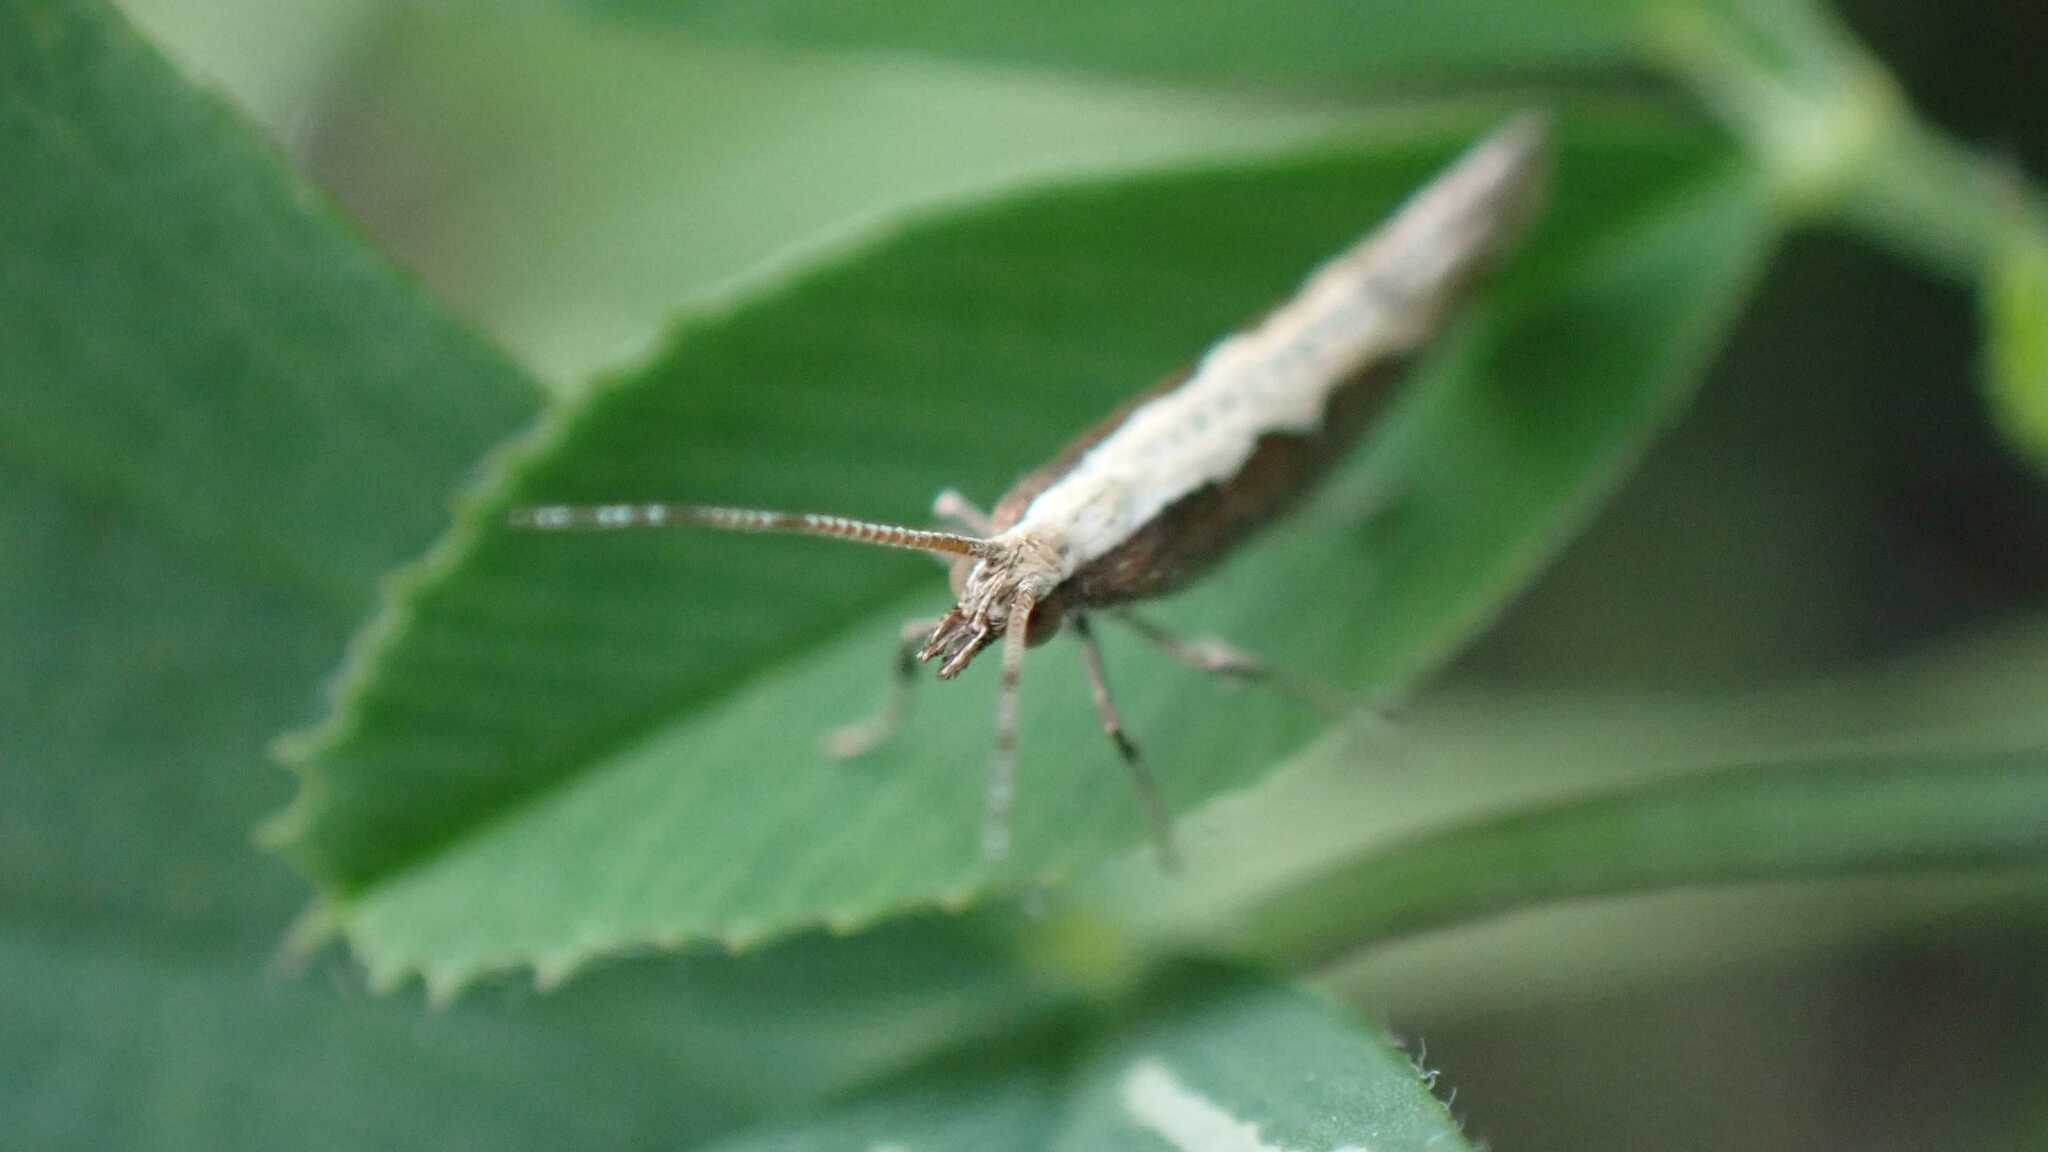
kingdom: Animalia
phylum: Arthropoda
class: Insecta
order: Lepidoptera
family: Plutellidae
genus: Plutella
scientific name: Plutella xylostella
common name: Diamond-back moth
